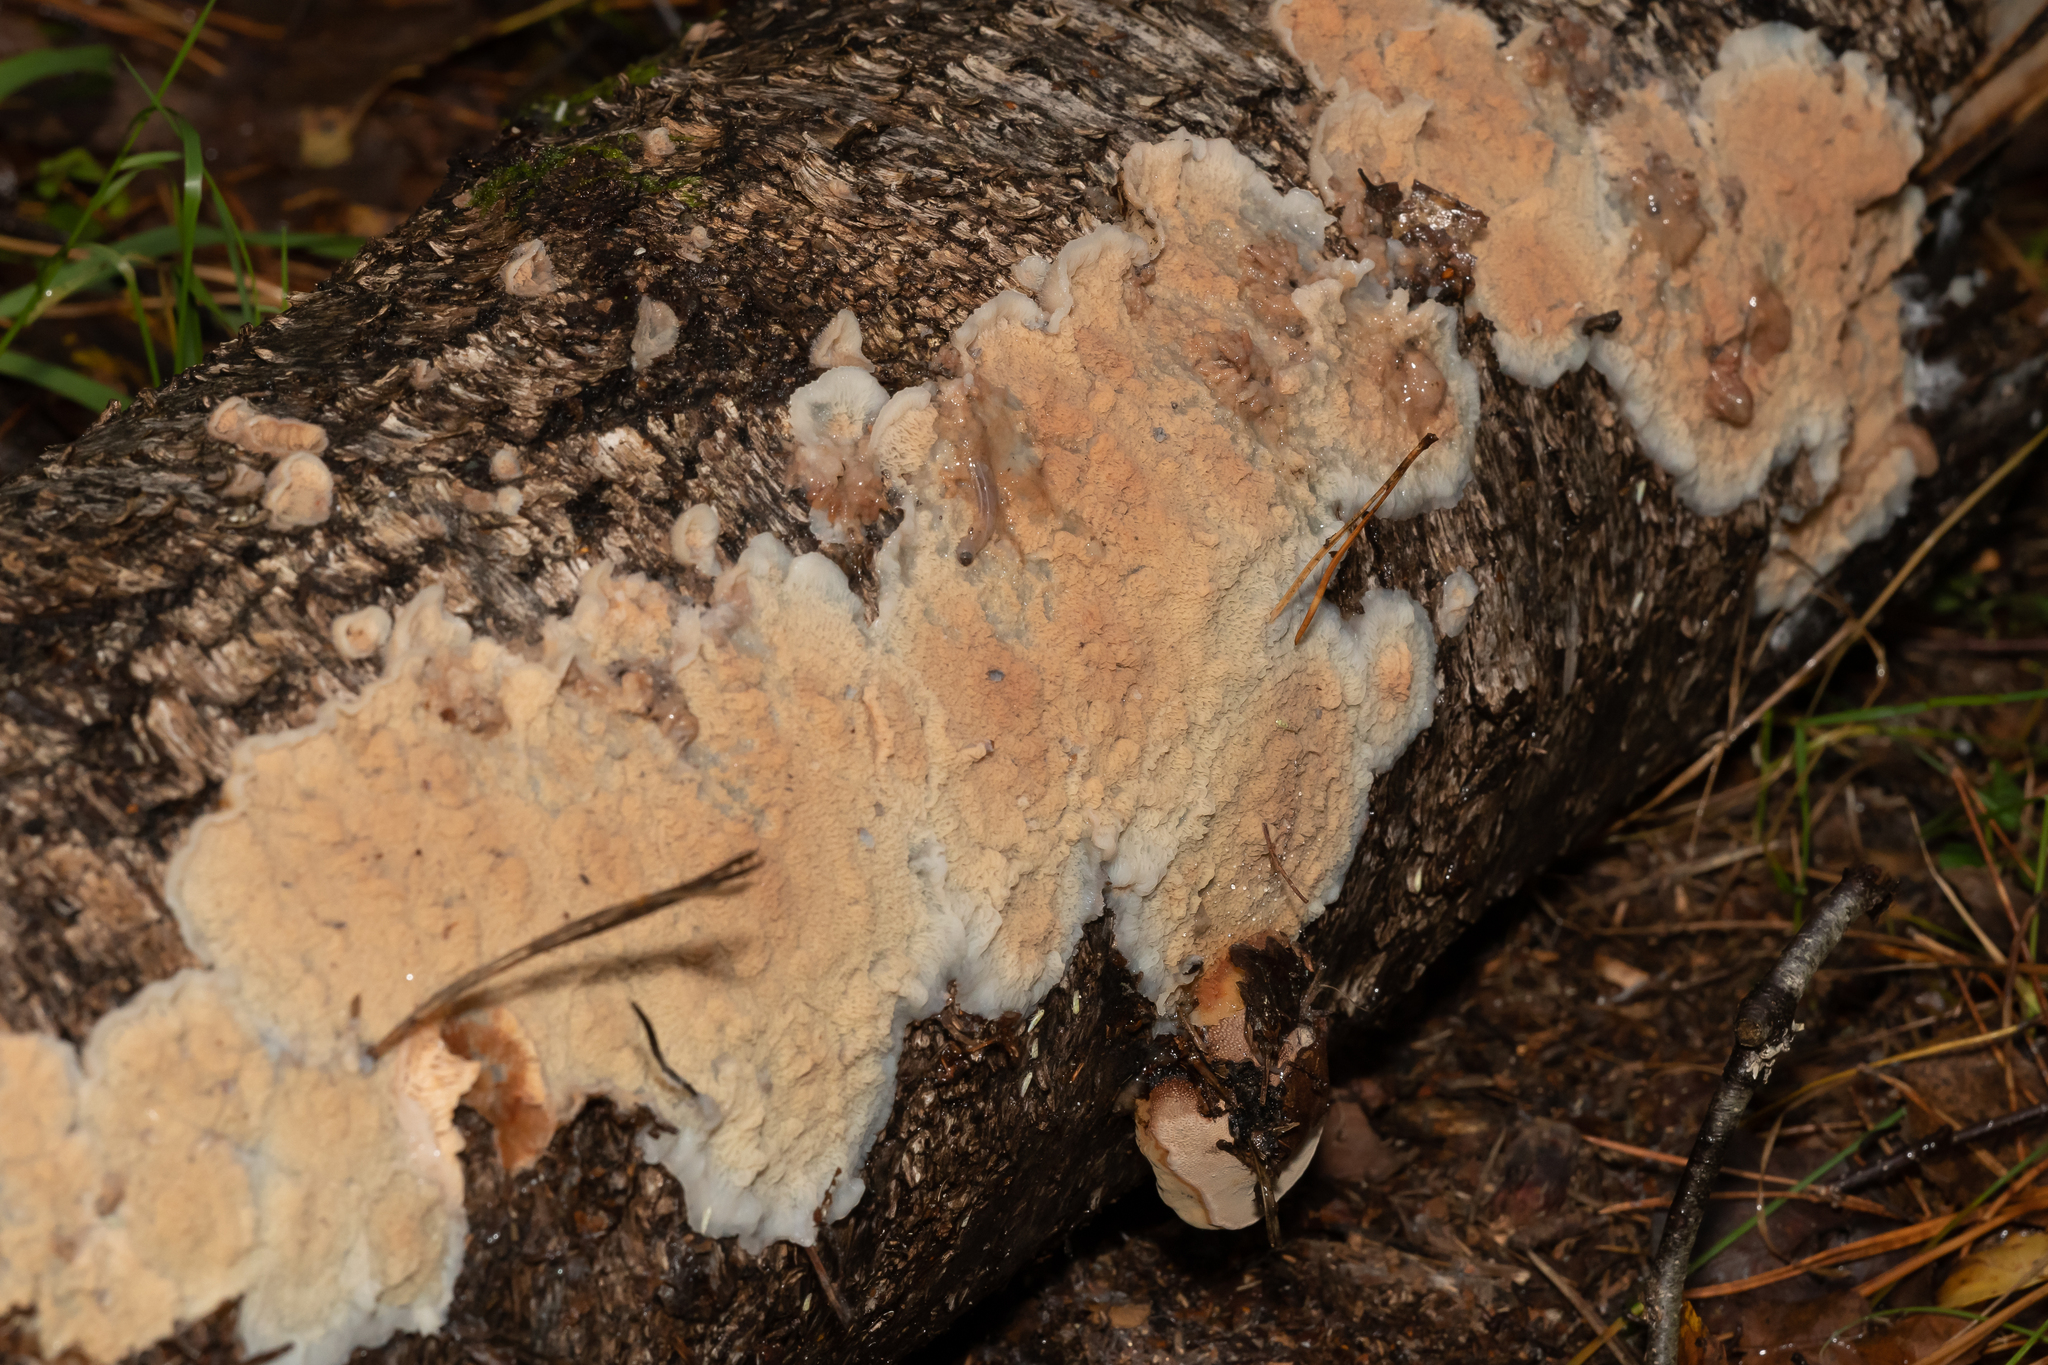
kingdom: Fungi
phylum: Basidiomycota
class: Agaricomycetes
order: Polyporales
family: Meruliaceae
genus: Phlebia
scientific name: Phlebia tremellosa
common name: Jelly rot
